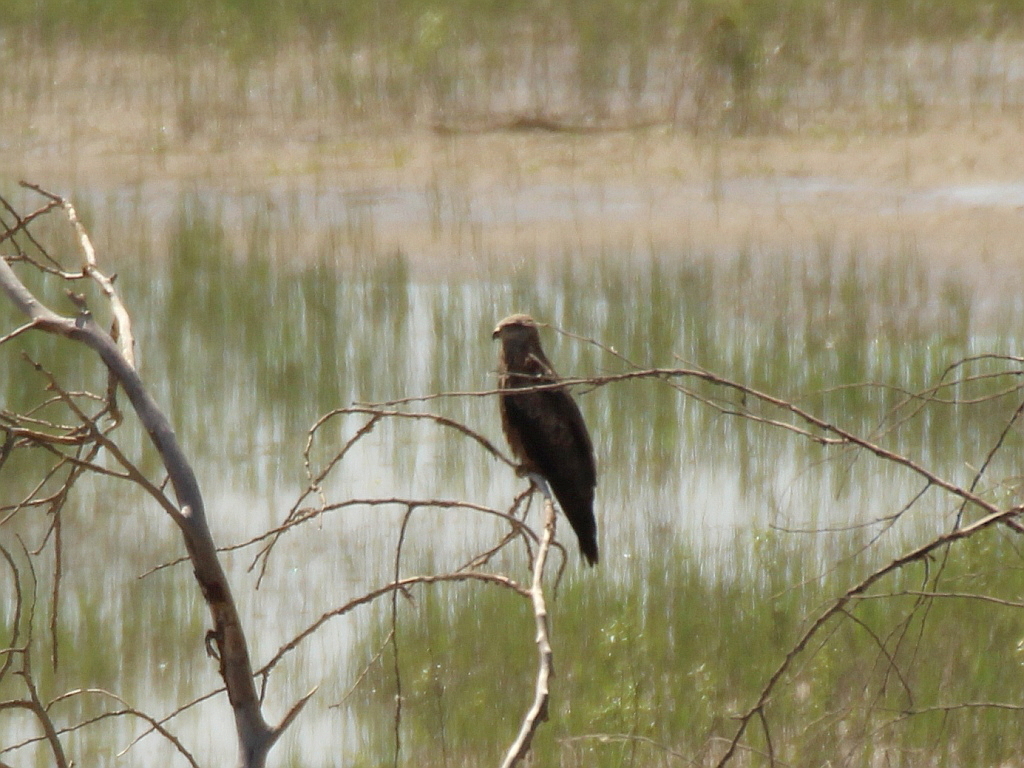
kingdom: Animalia
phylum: Chordata
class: Aves
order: Accipitriformes
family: Accipitridae
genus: Milvus
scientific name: Milvus migrans
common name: Black kite
